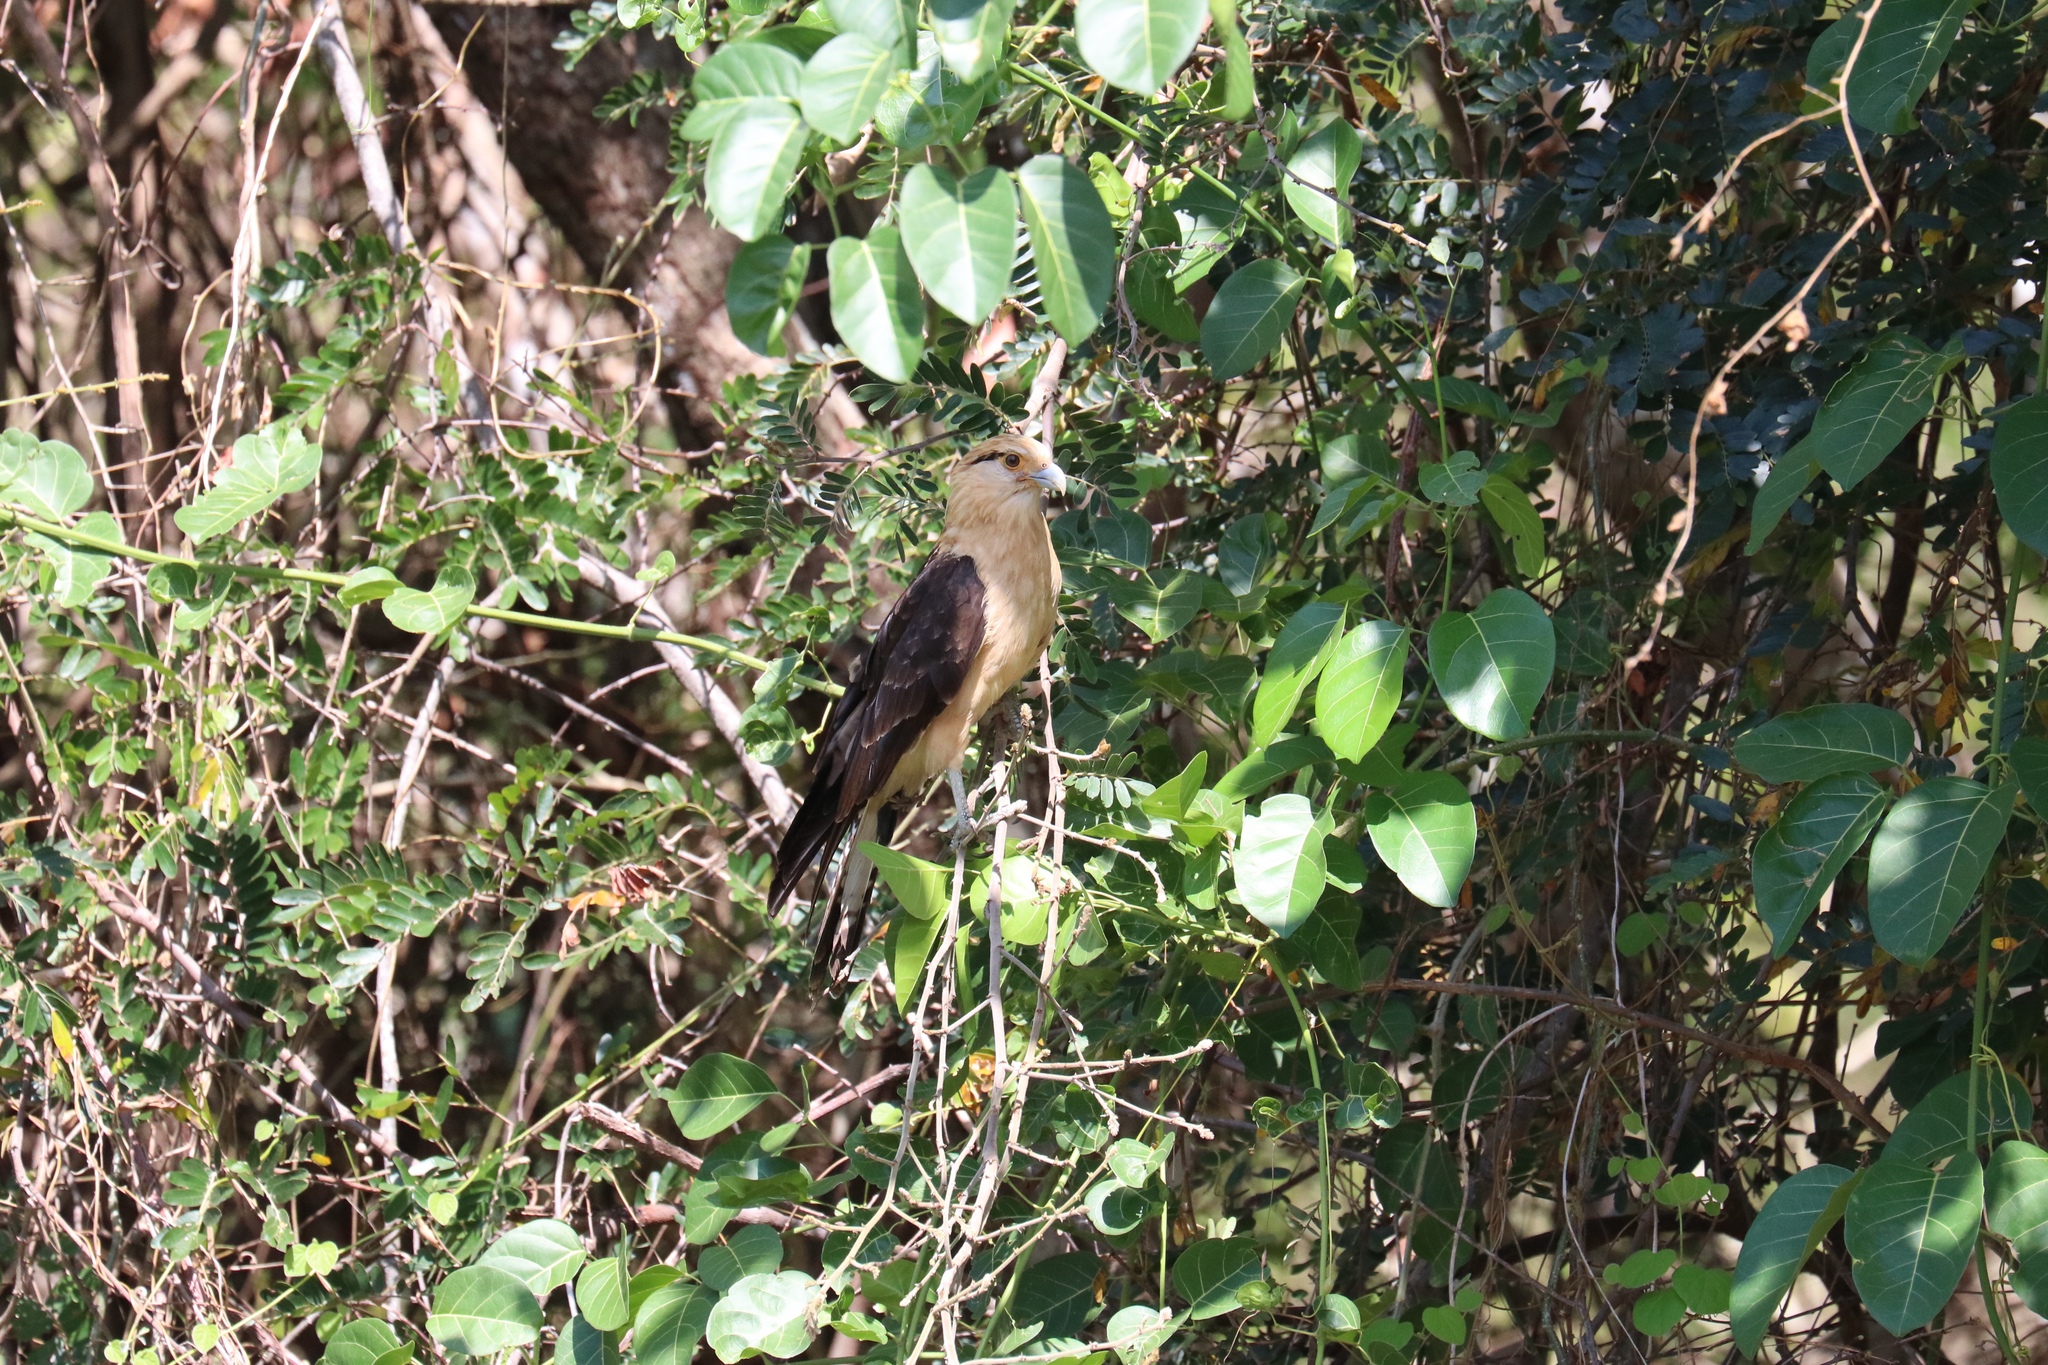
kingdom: Animalia
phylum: Chordata
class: Aves
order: Falconiformes
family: Falconidae
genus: Daptrius
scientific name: Daptrius
